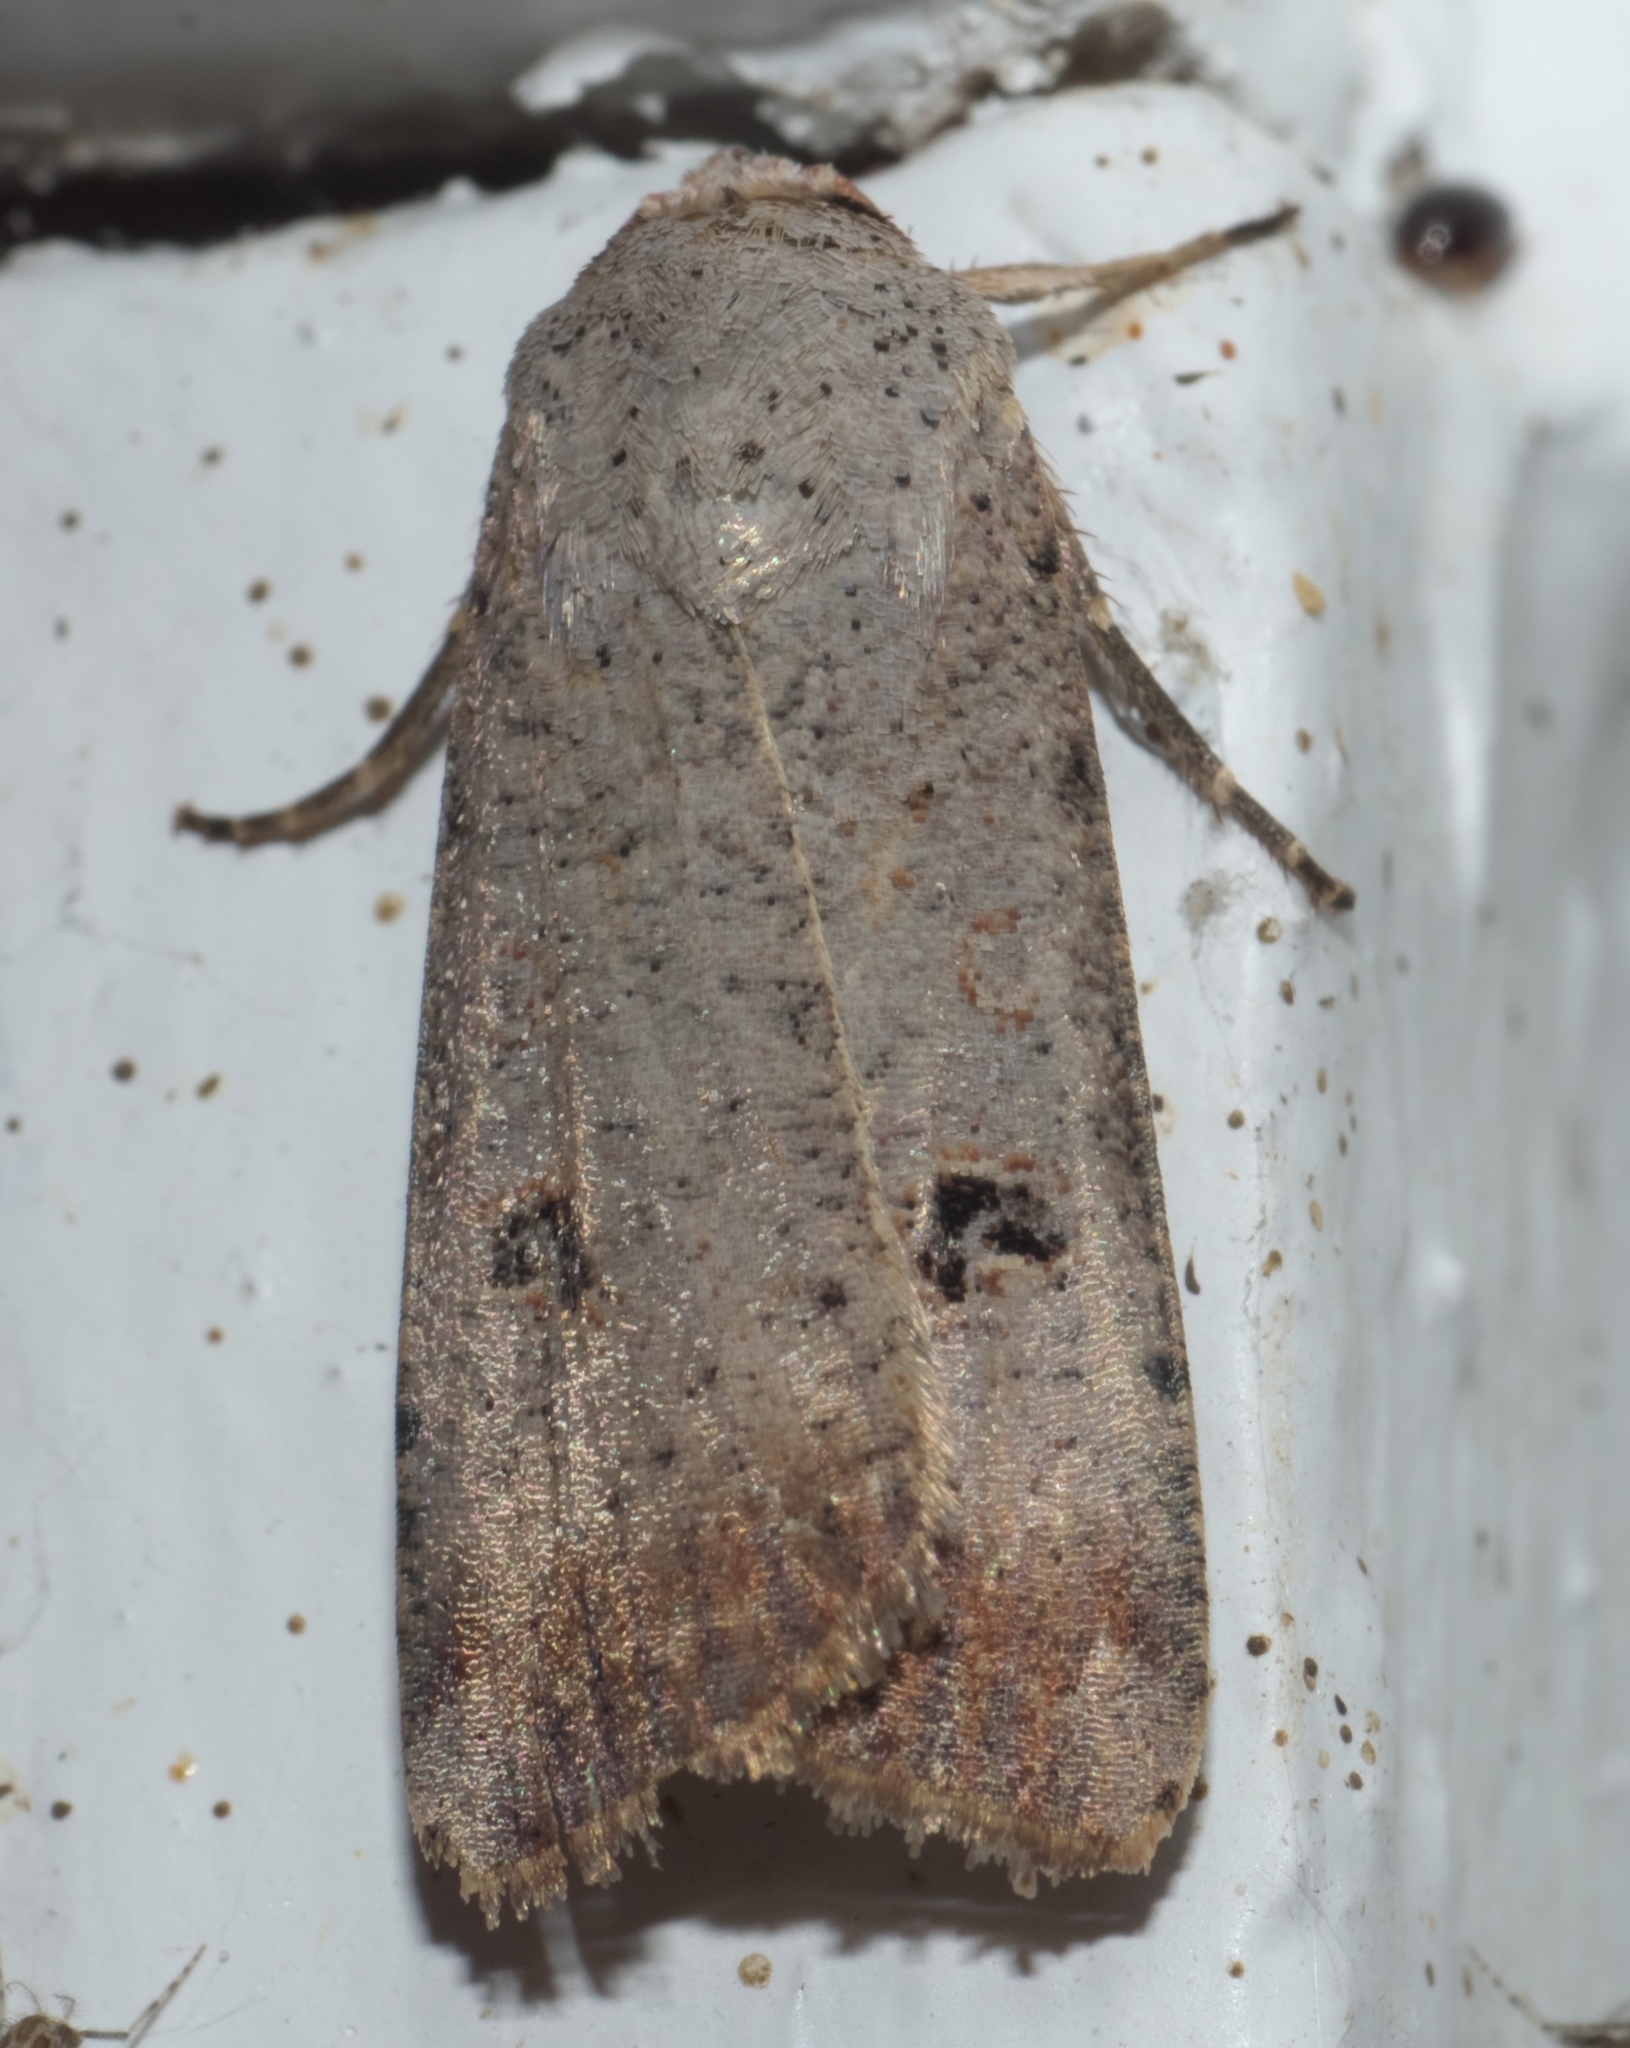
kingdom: Animalia
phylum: Arthropoda
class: Insecta
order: Lepidoptera
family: Noctuidae
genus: Anicla
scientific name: Anicla infecta
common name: Green cutworm
